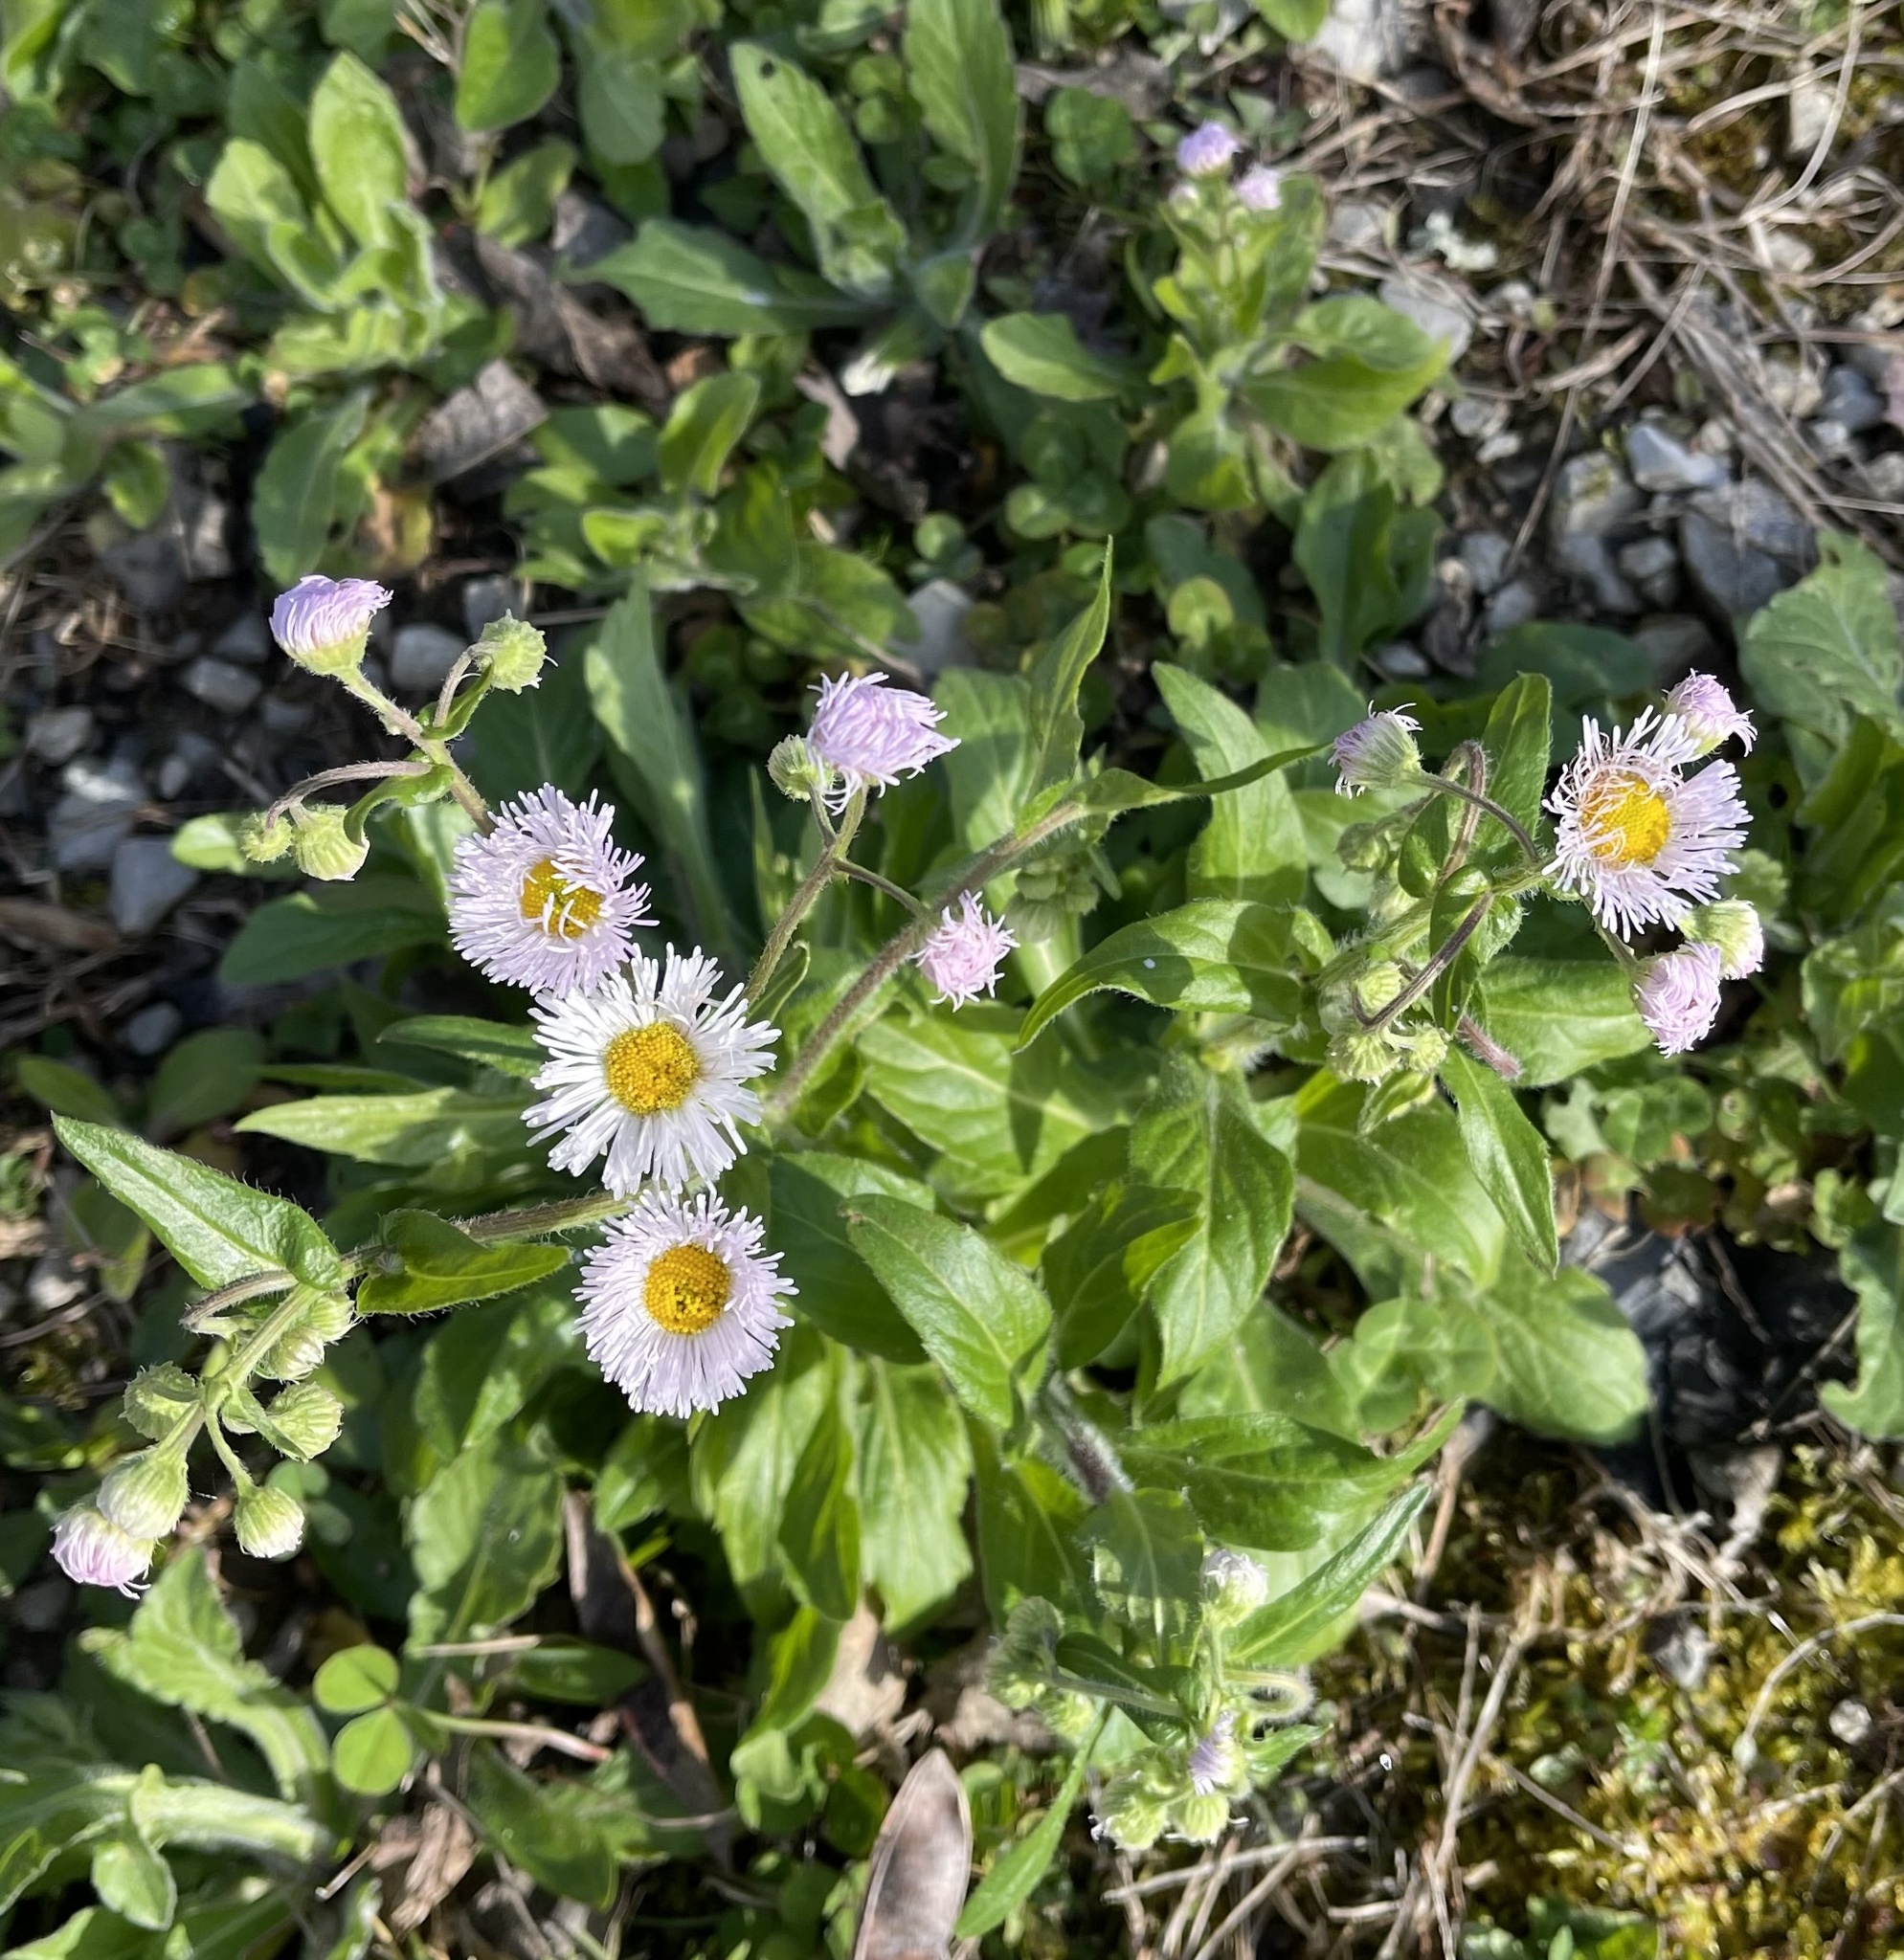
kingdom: Plantae
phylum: Tracheophyta
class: Magnoliopsida
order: Asterales
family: Asteraceae
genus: Erigeron
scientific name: Erigeron philadelphicus
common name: Robin's-plantain
